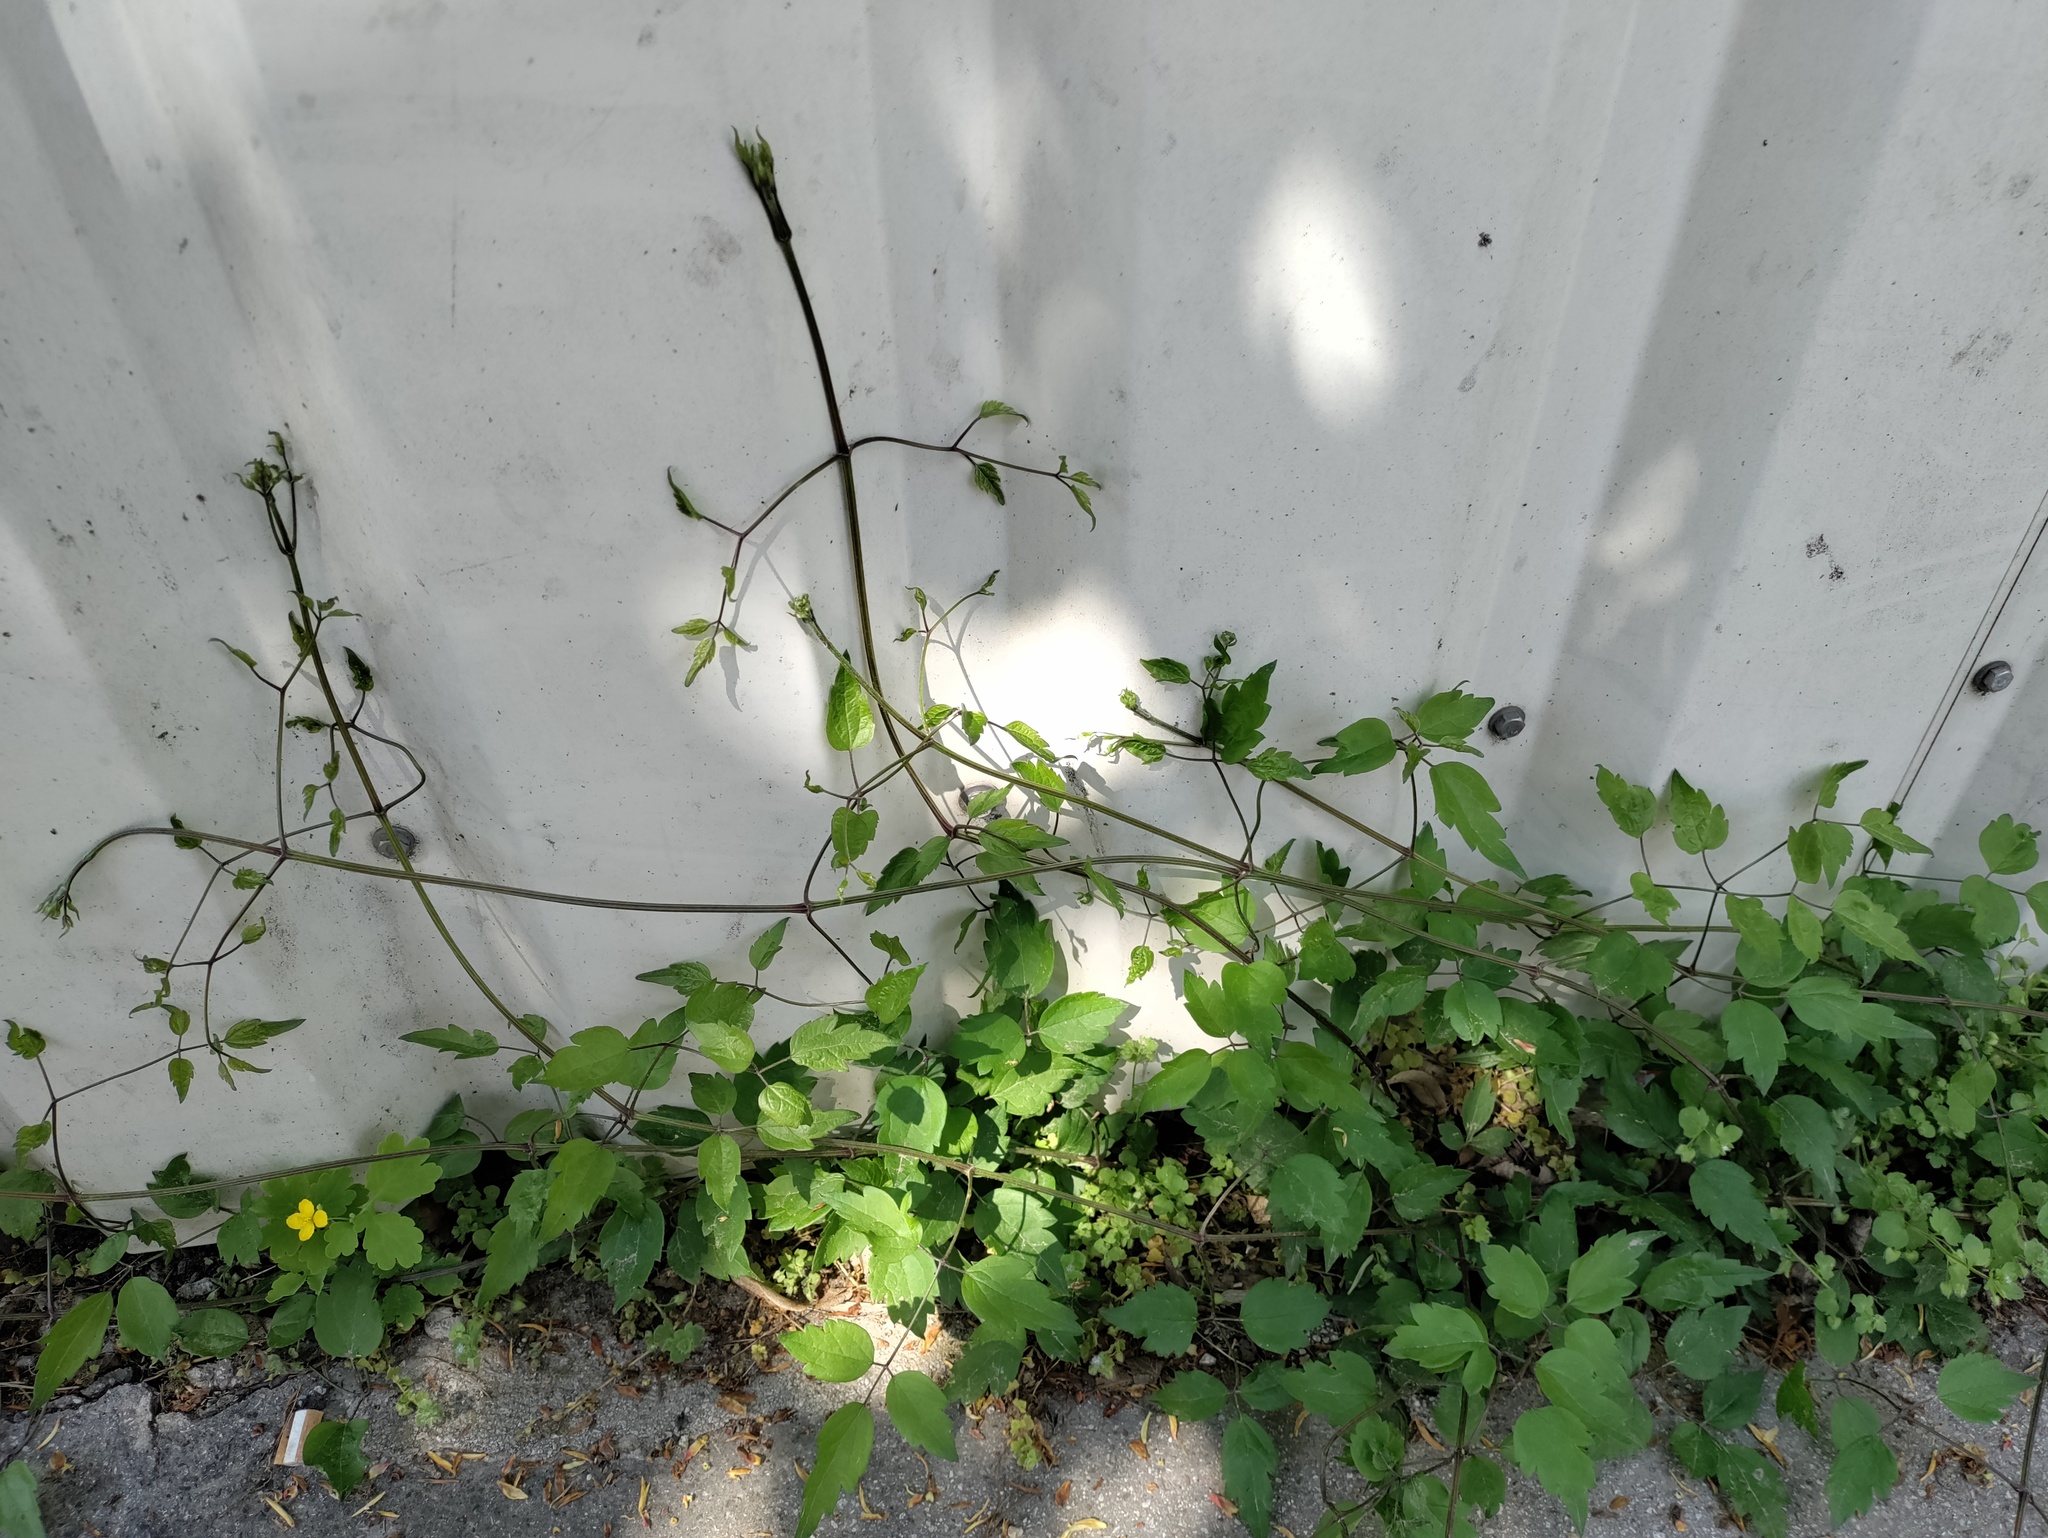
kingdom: Plantae
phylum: Tracheophyta
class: Magnoliopsida
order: Ranunculales
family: Ranunculaceae
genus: Clematis
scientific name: Clematis vitalba
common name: Evergreen clematis
